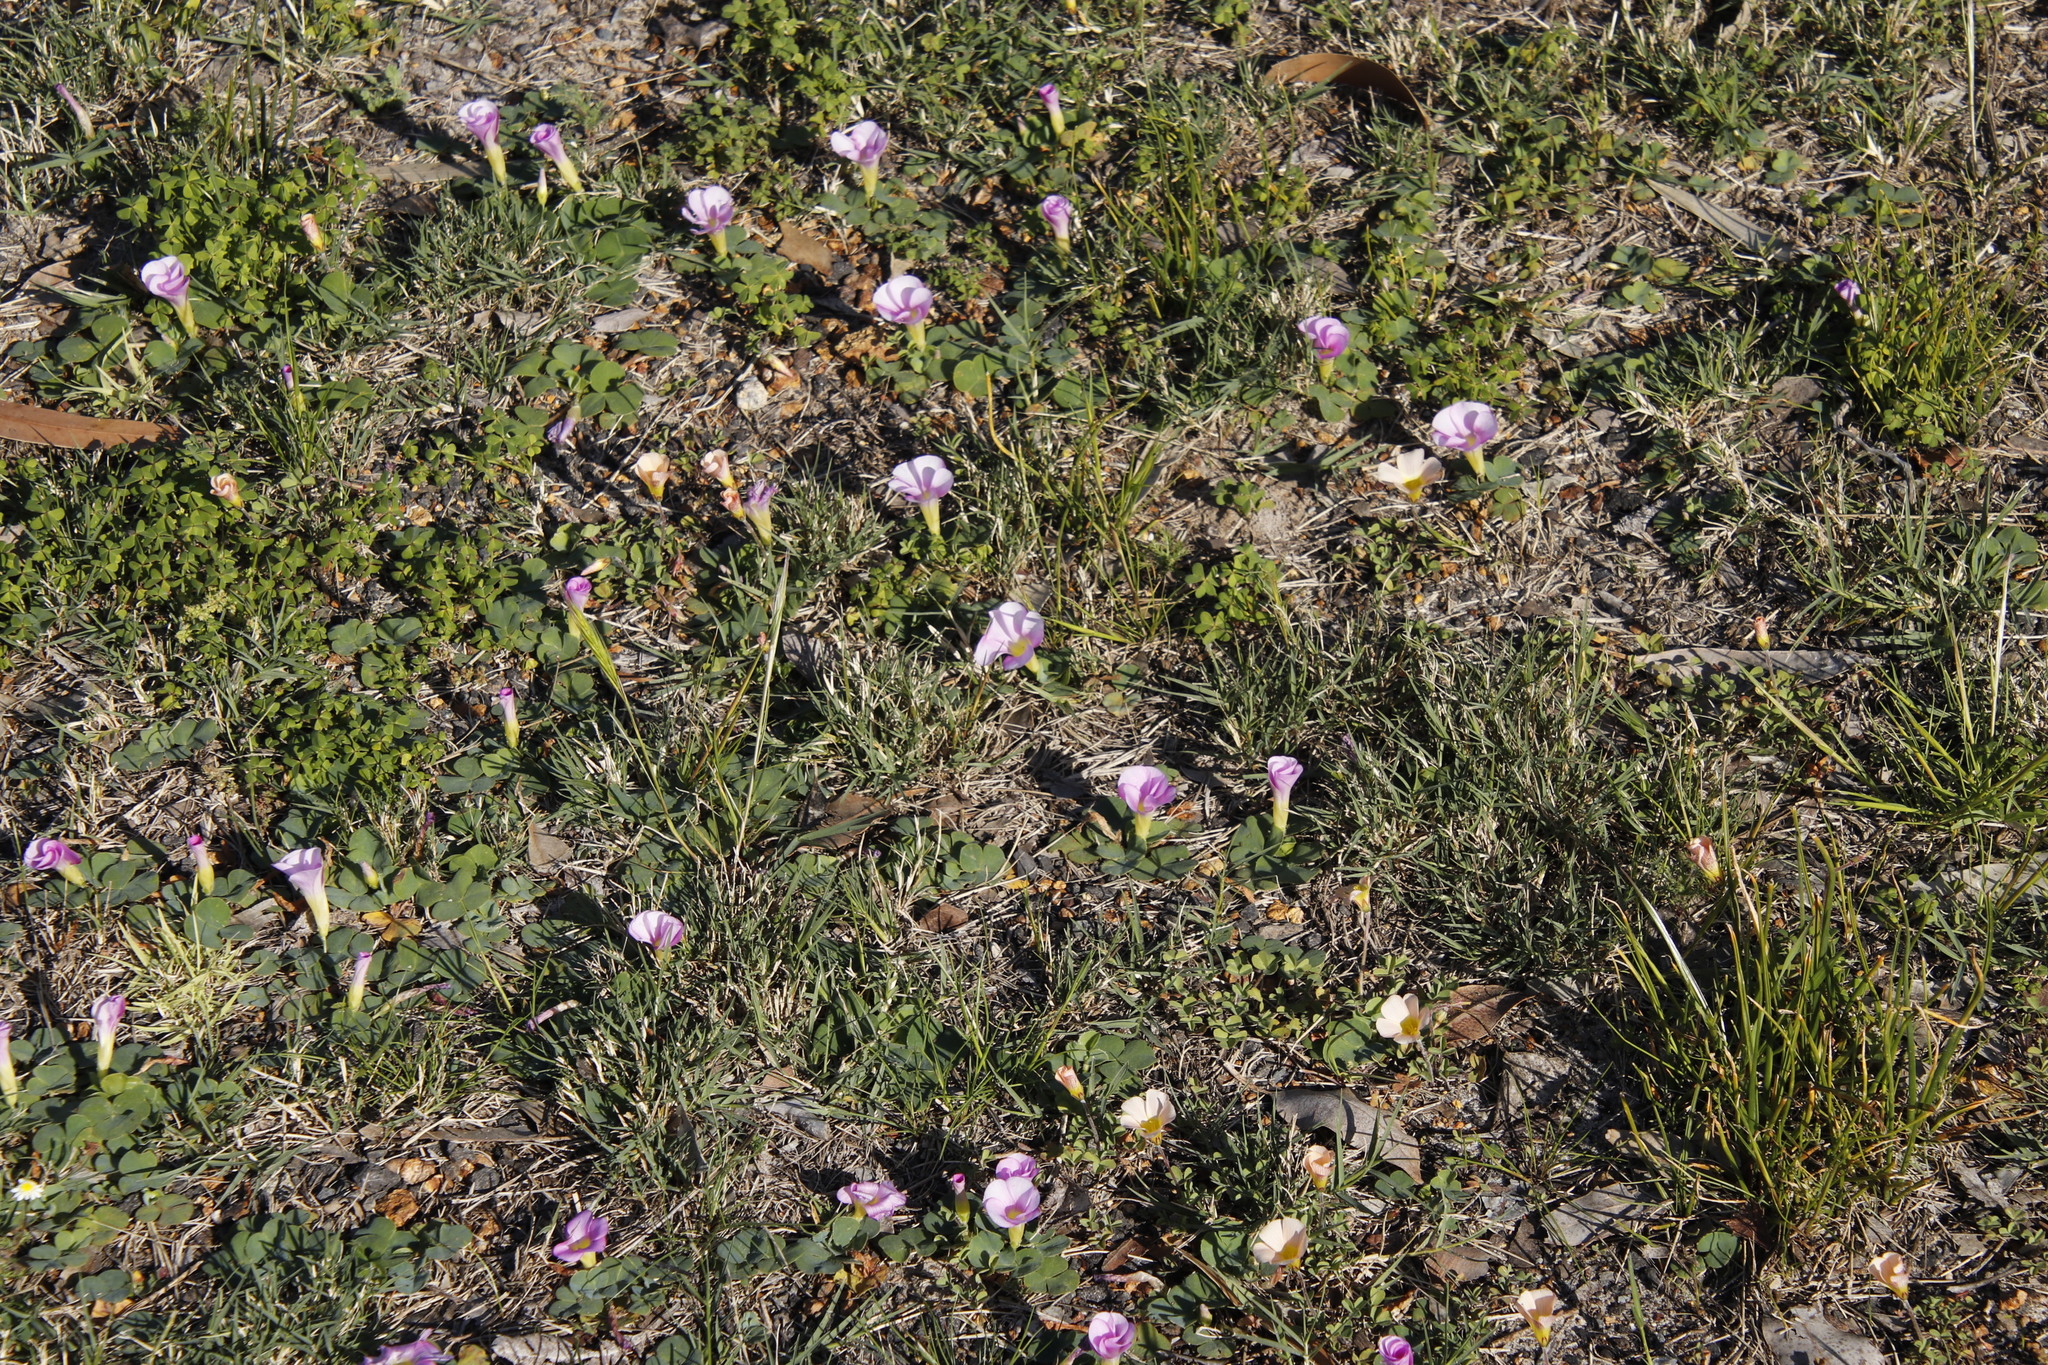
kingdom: Plantae
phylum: Tracheophyta
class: Magnoliopsida
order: Oxalidales
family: Oxalidaceae
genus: Oxalis
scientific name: Oxalis purpurea
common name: Purple woodsorrel
